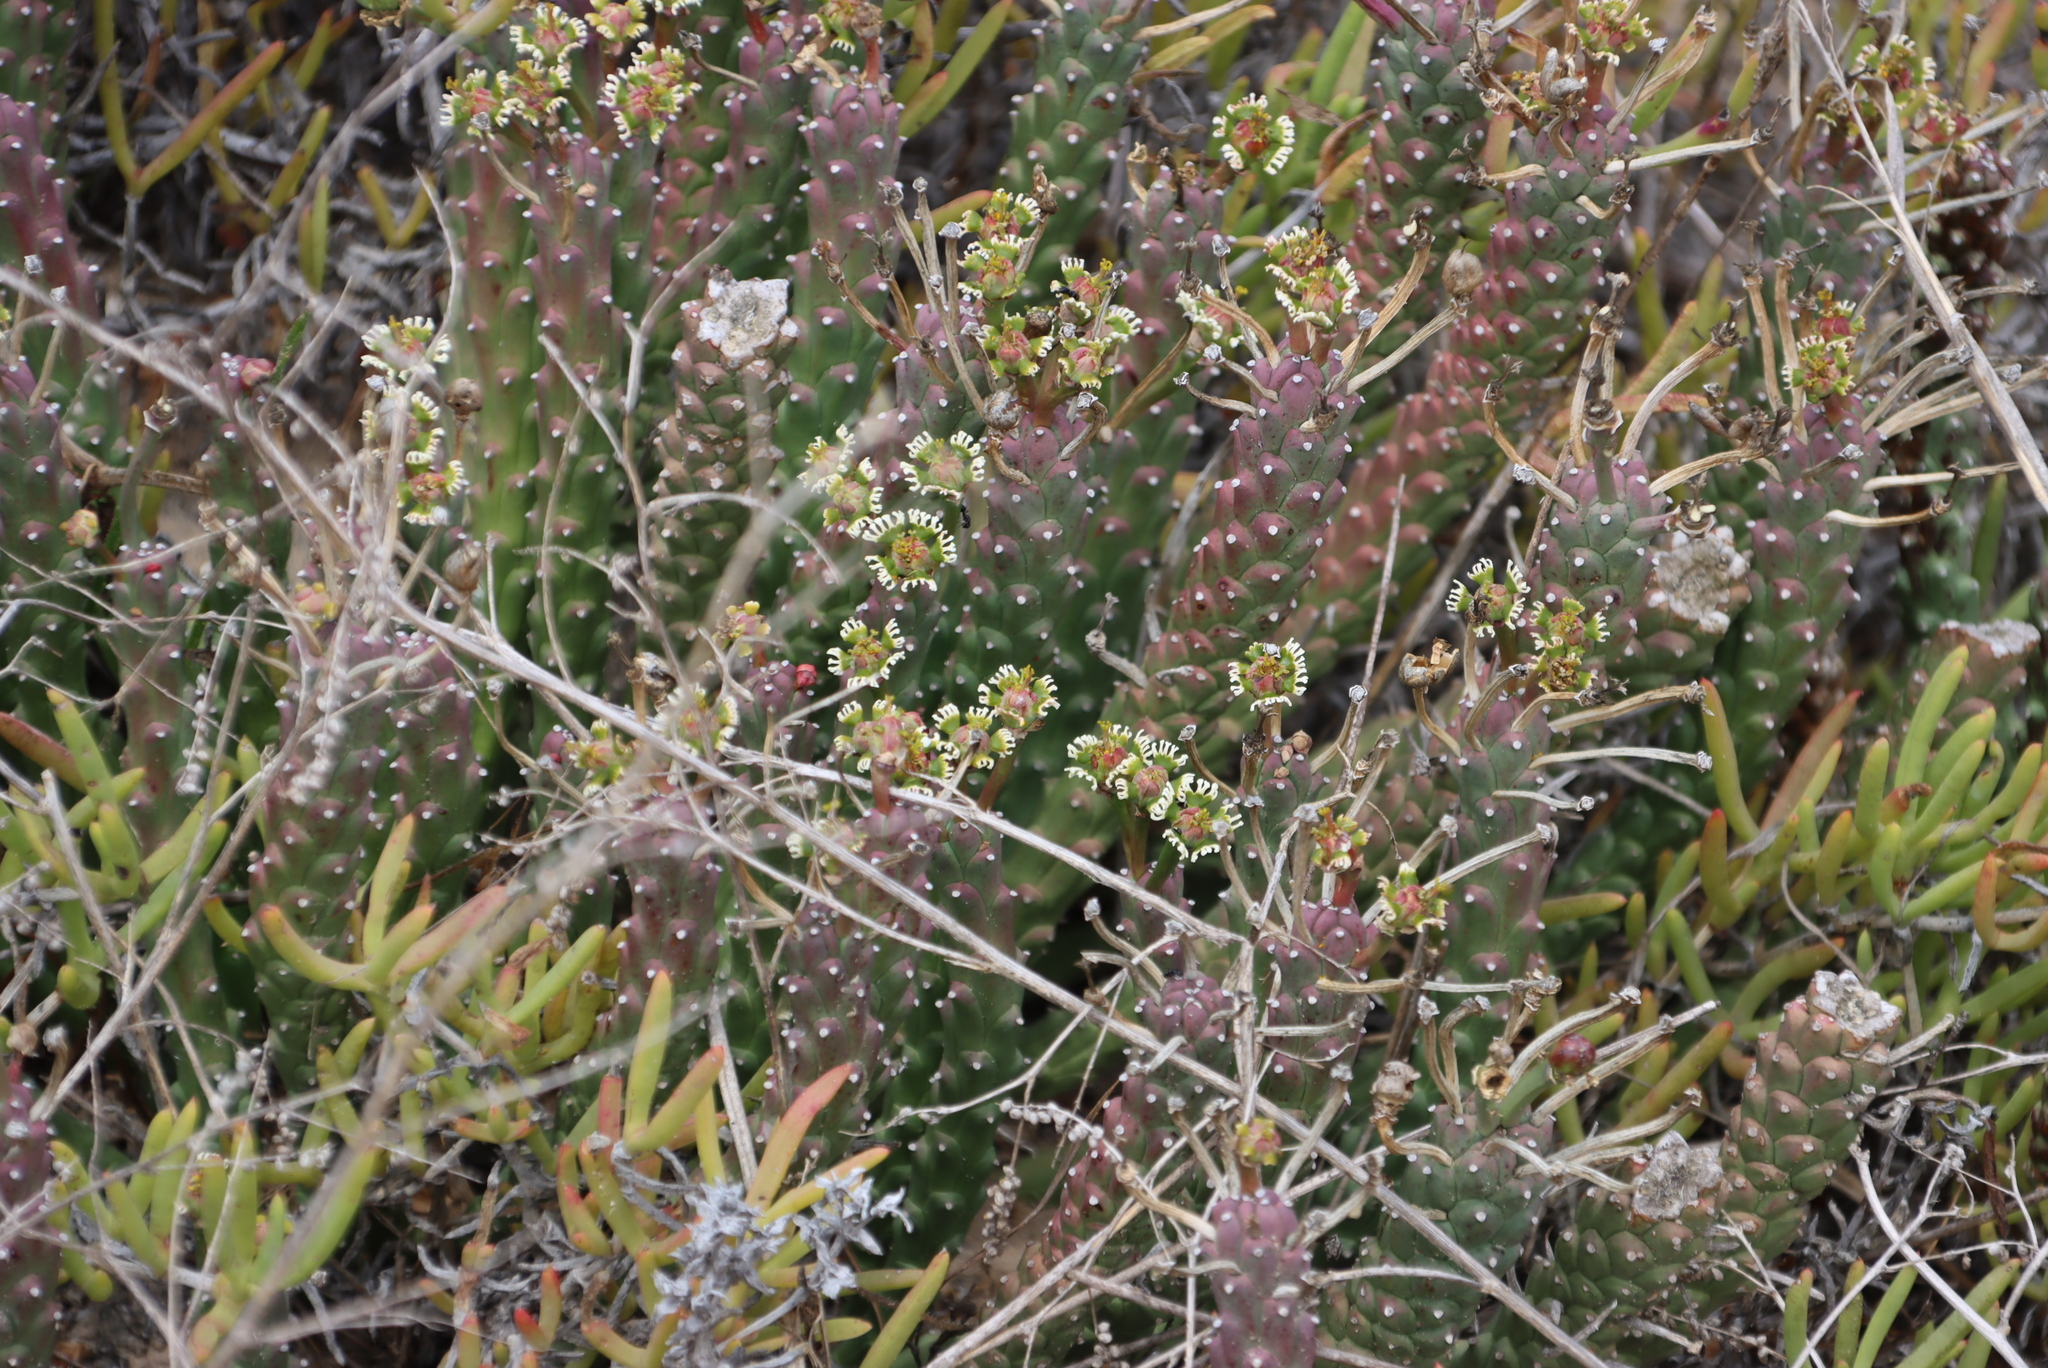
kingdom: Plantae
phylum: Tracheophyta
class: Magnoliopsida
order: Malpighiales
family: Euphorbiaceae
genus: Euphorbia
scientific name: Euphorbia caput-medusae
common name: Medusa's-head
